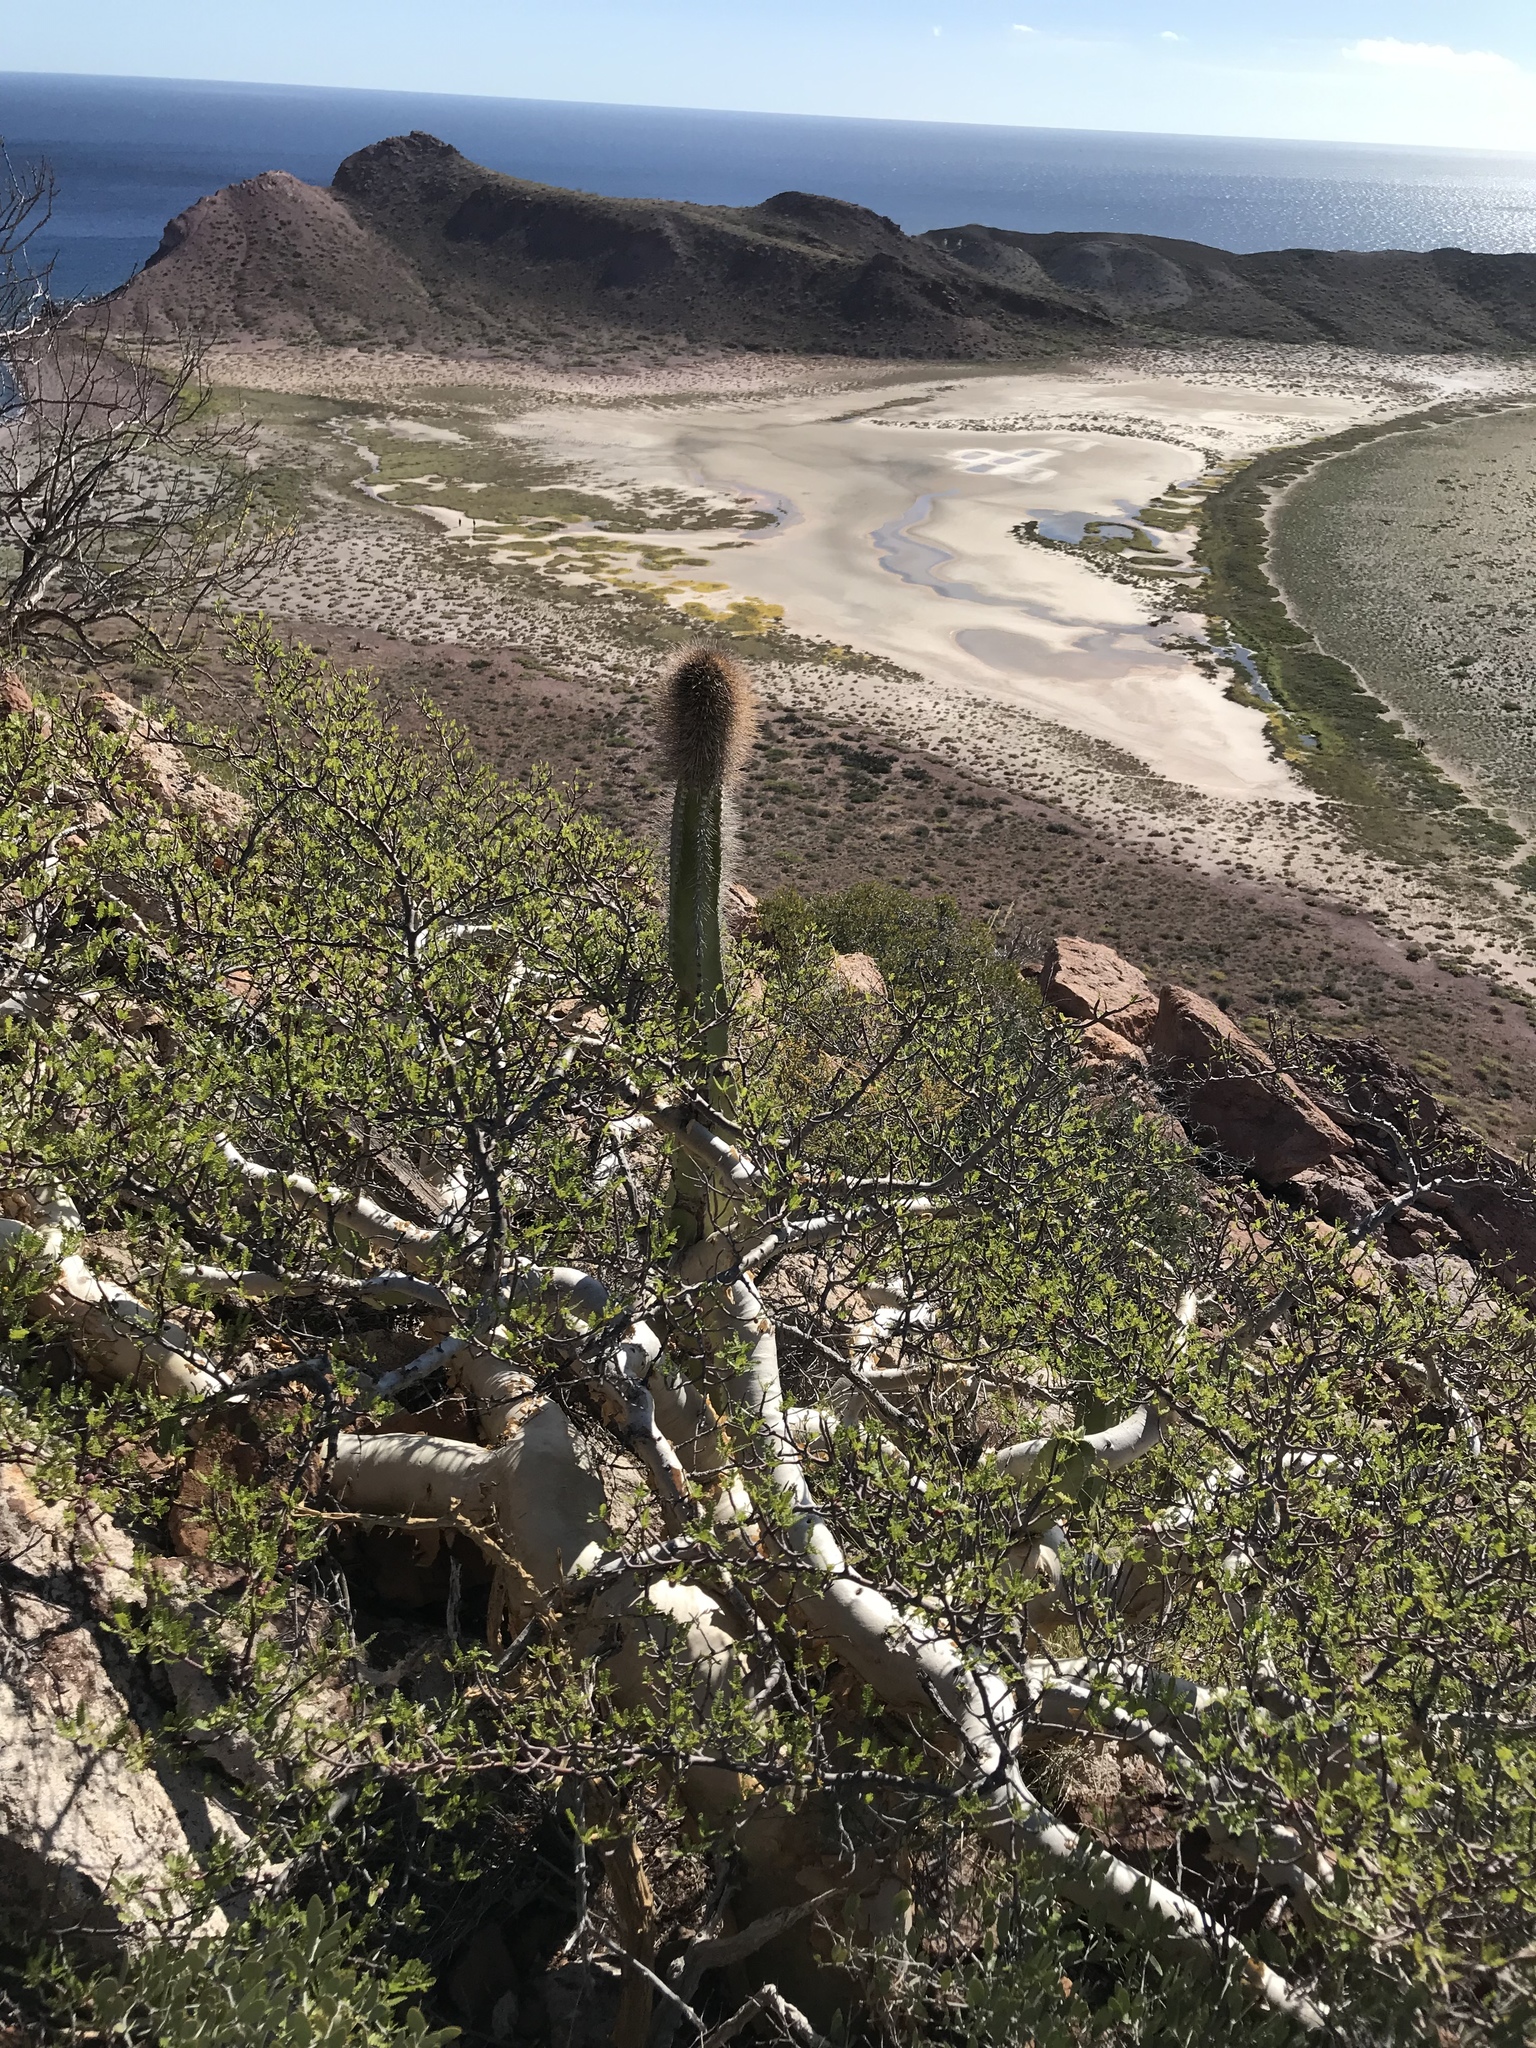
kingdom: Plantae
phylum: Tracheophyta
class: Magnoliopsida
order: Caryophyllales
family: Cactaceae
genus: Pachycereus
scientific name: Pachycereus schottii
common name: Senita cactus
